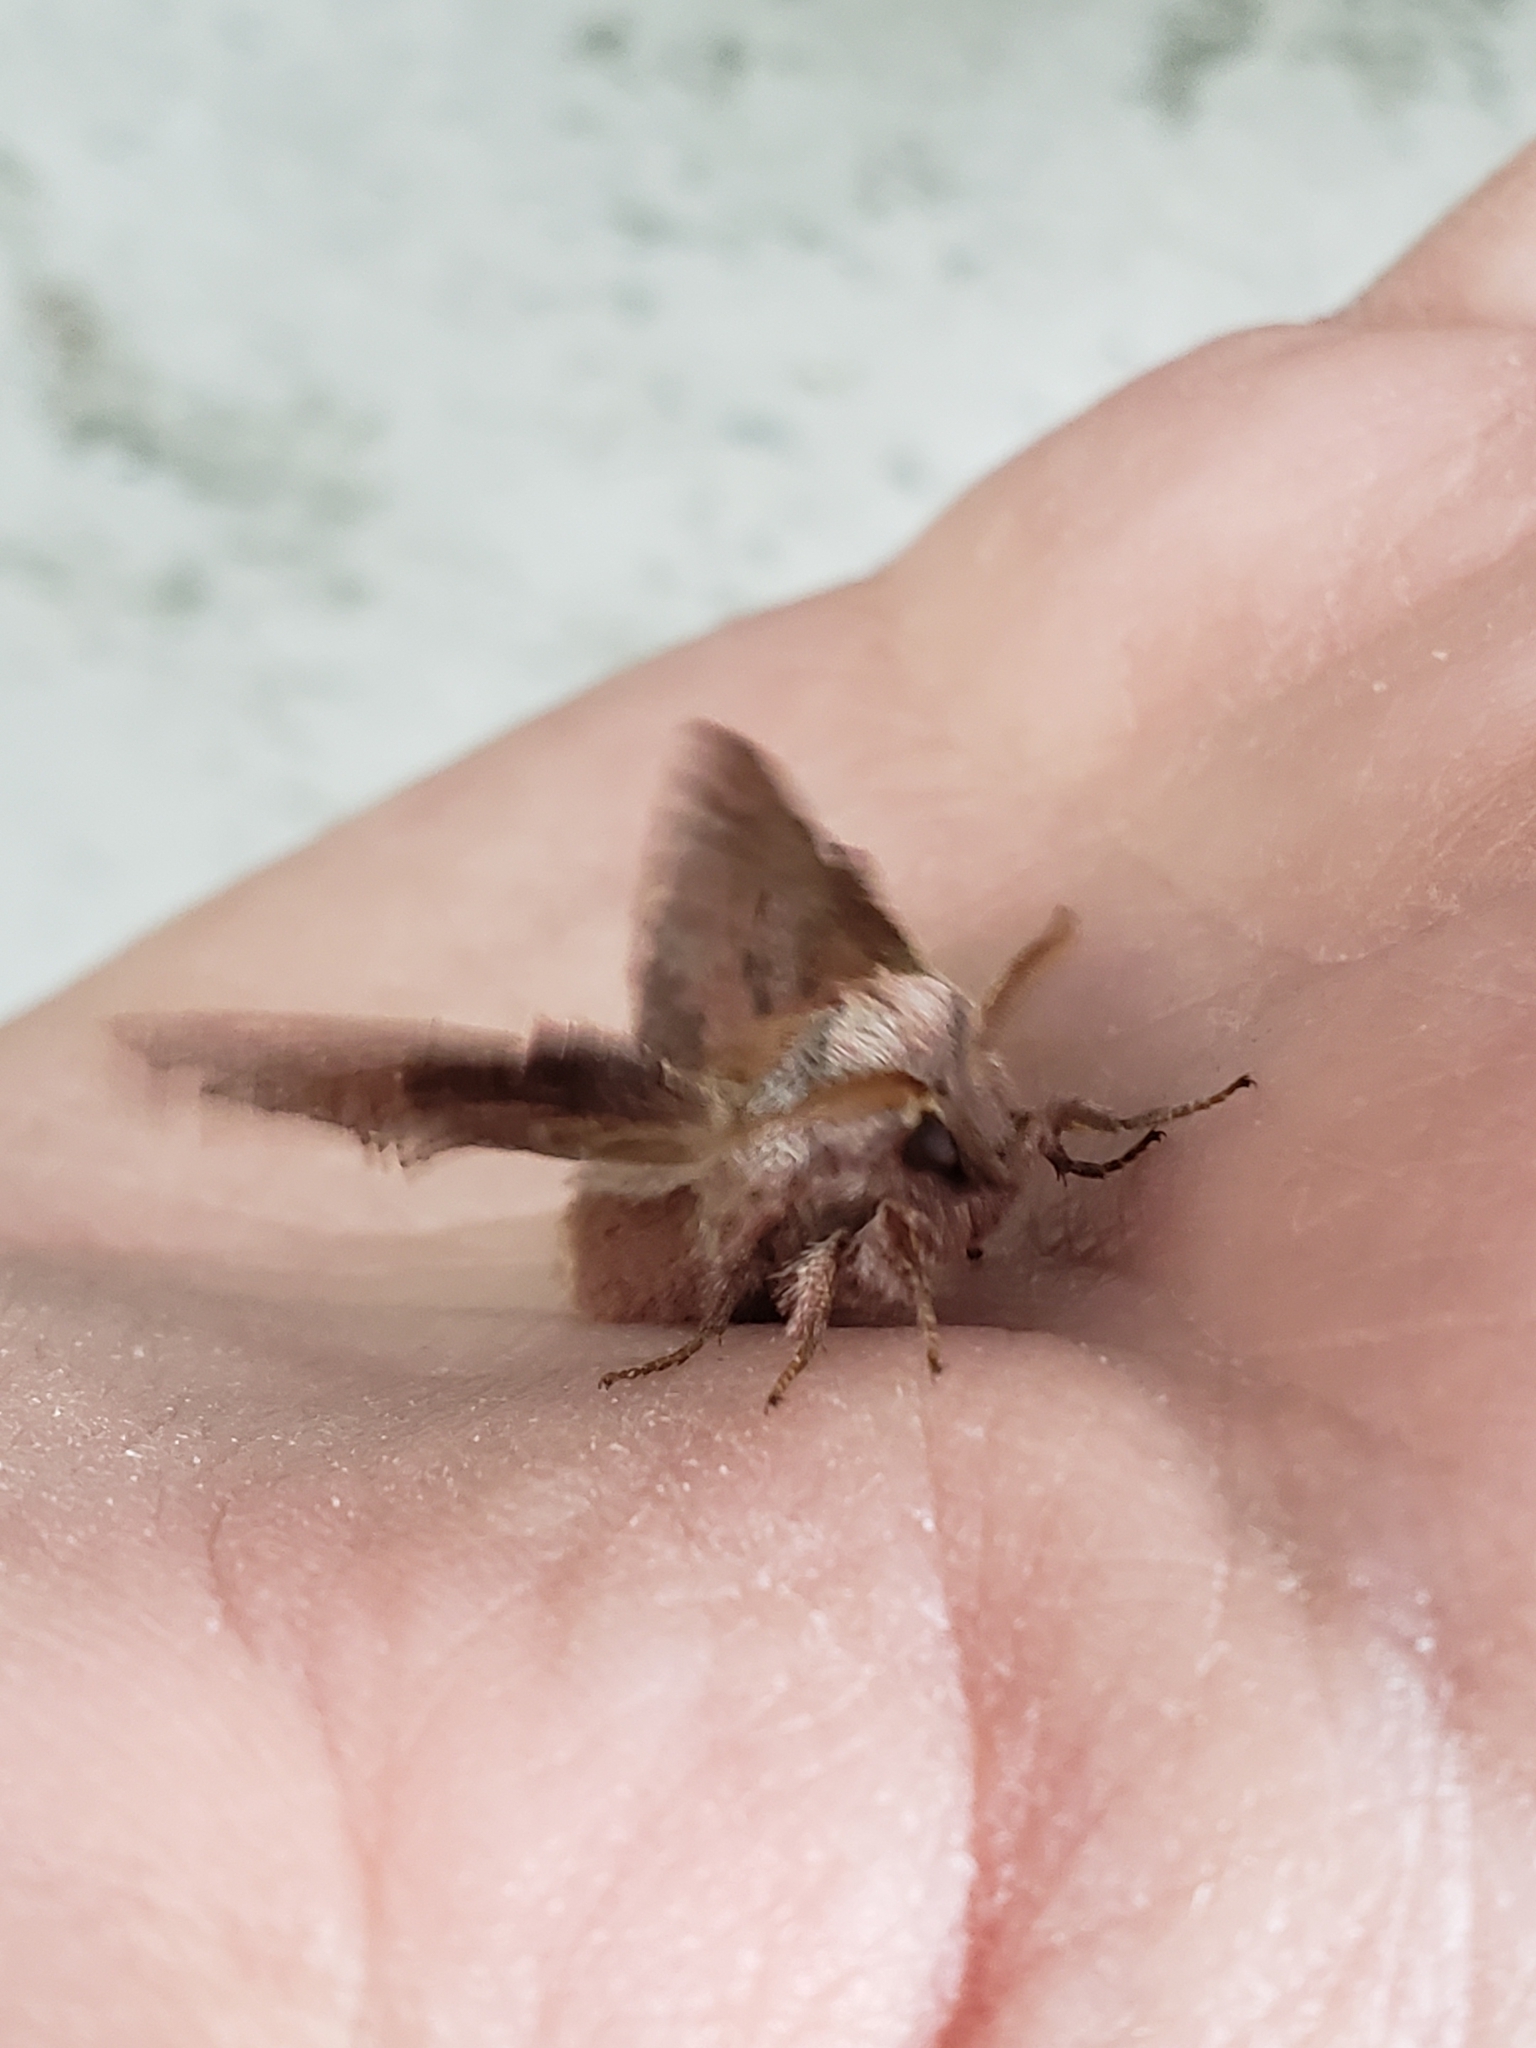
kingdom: Animalia
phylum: Arthropoda
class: Insecta
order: Lepidoptera
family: Lasiocampidae
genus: Phyllodesma
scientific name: Phyllodesma americana
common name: American lappet moth
